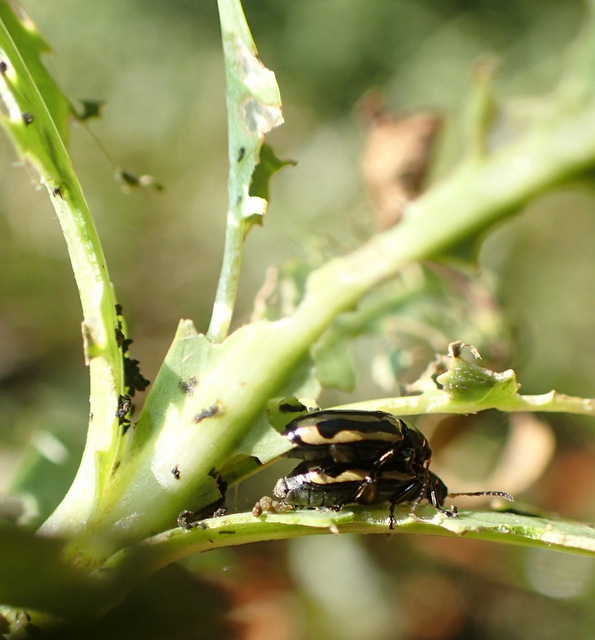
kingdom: Animalia
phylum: Arthropoda
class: Insecta
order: Coleoptera
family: Chrysomelidae
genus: Agasicles
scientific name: Agasicles hygrophila
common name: Alligatorweed flea beetle
